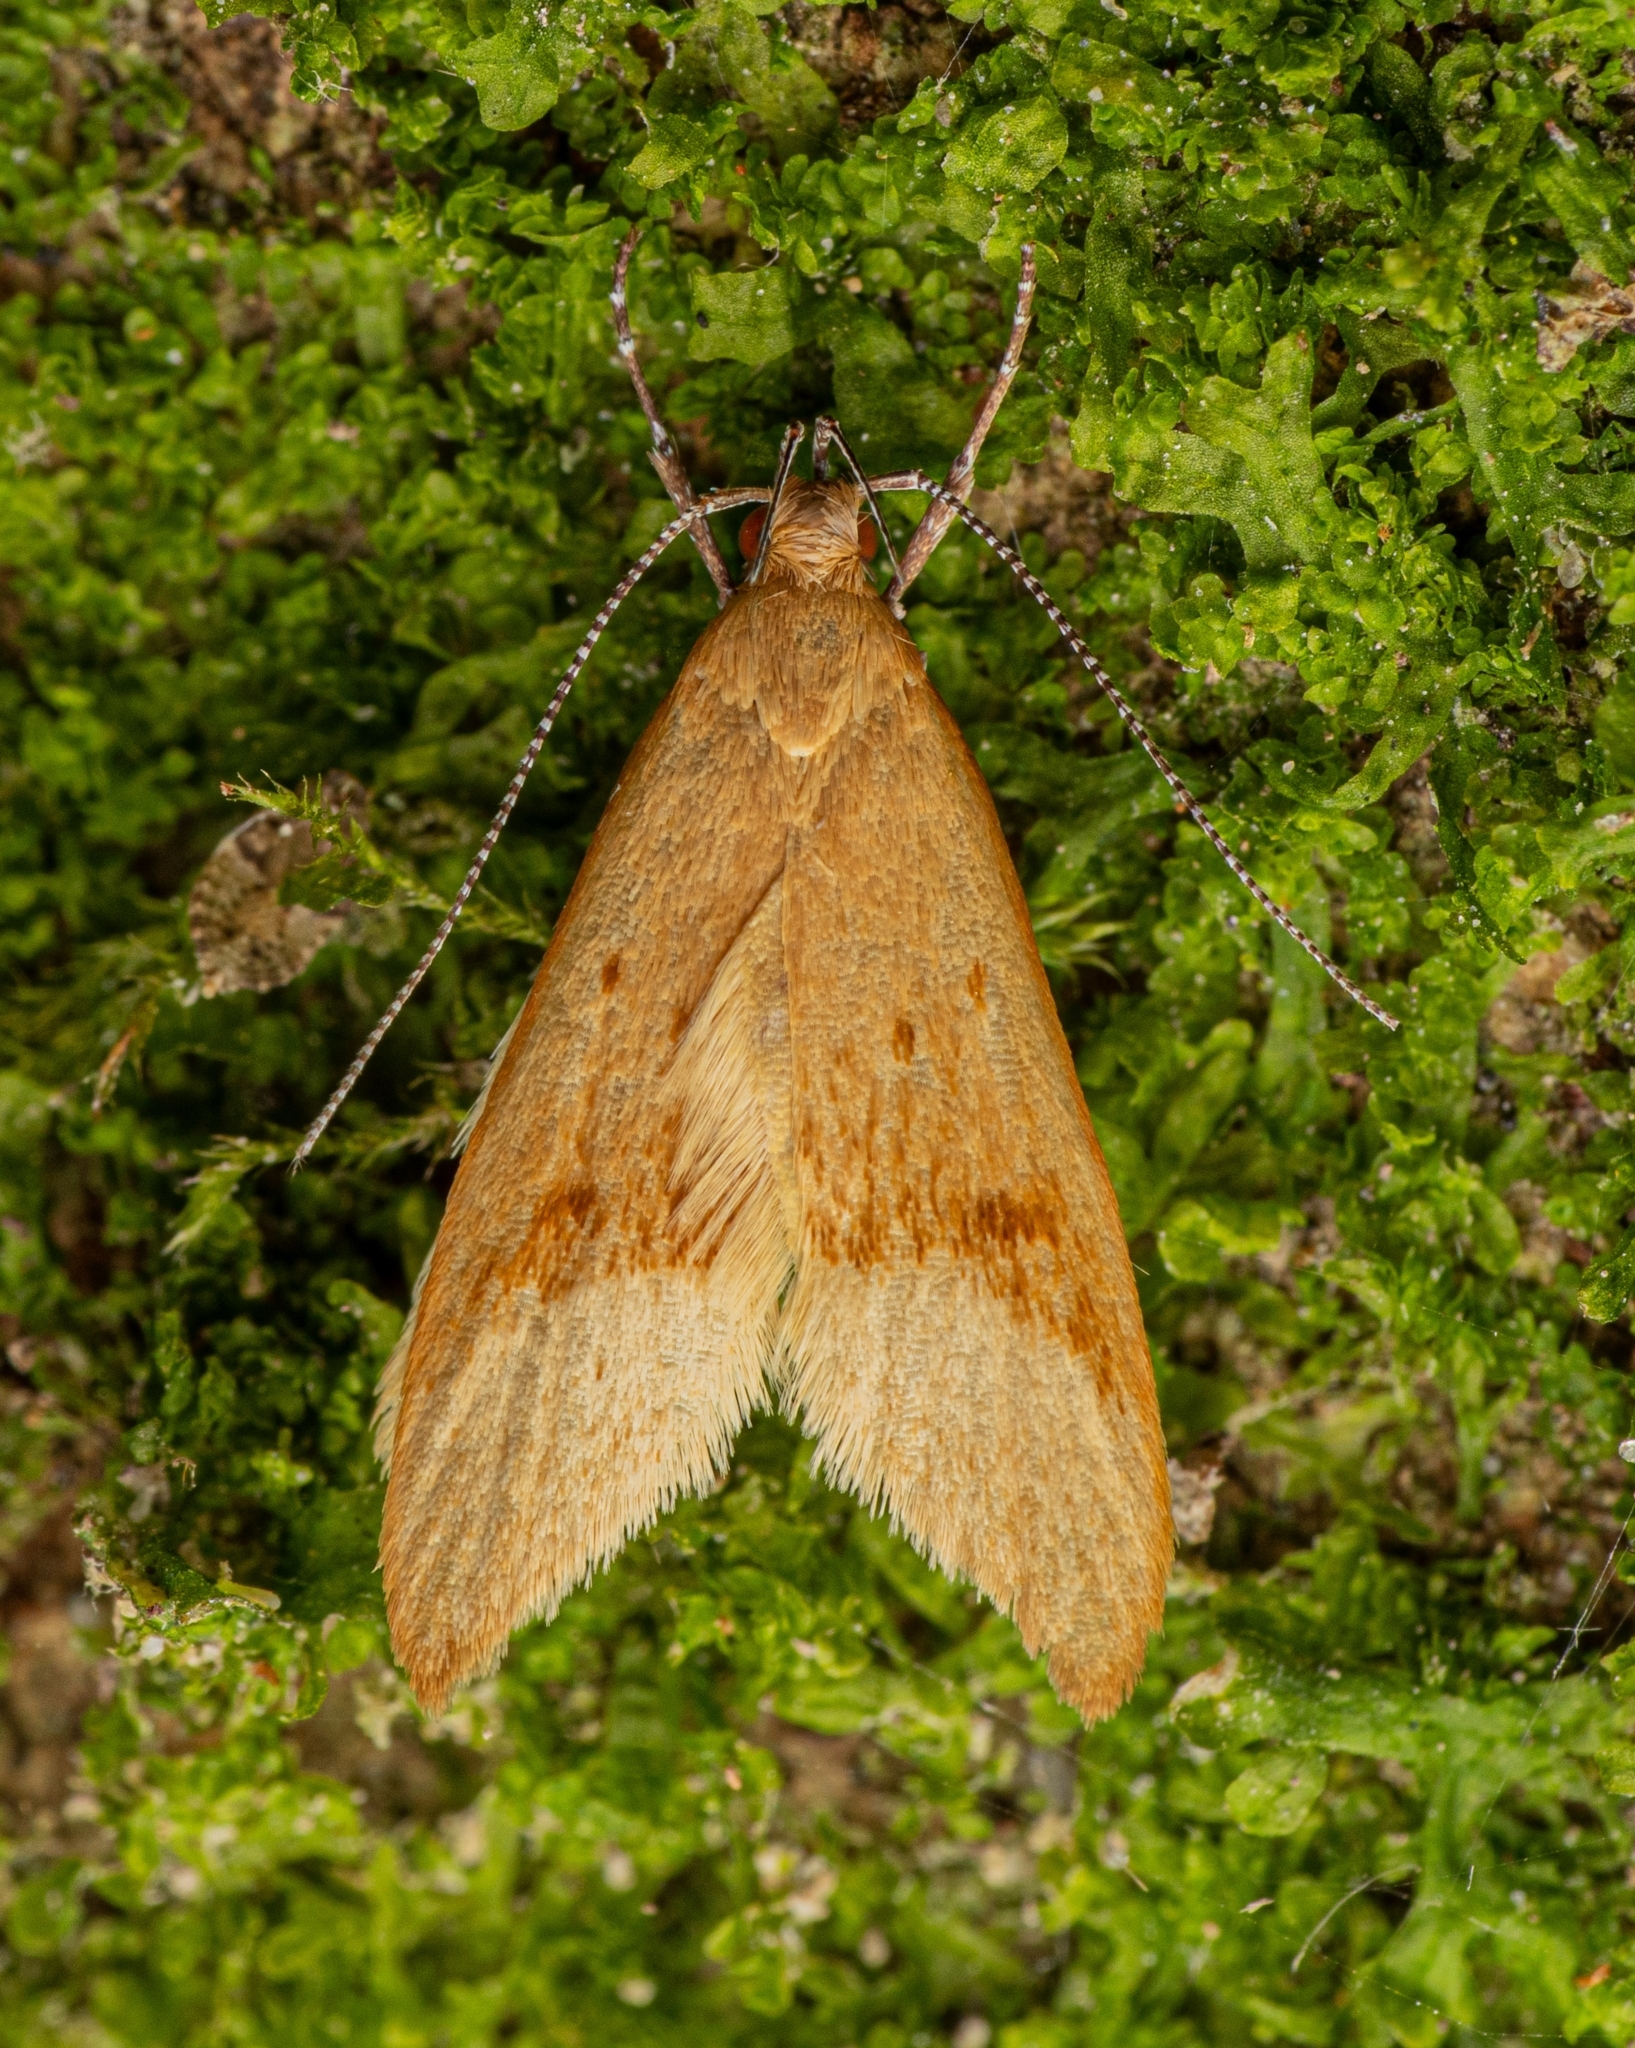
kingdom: Animalia
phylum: Arthropoda
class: Insecta
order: Lepidoptera
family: Oecophoridae
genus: Gymnobathra
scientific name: Gymnobathra hyetodes
